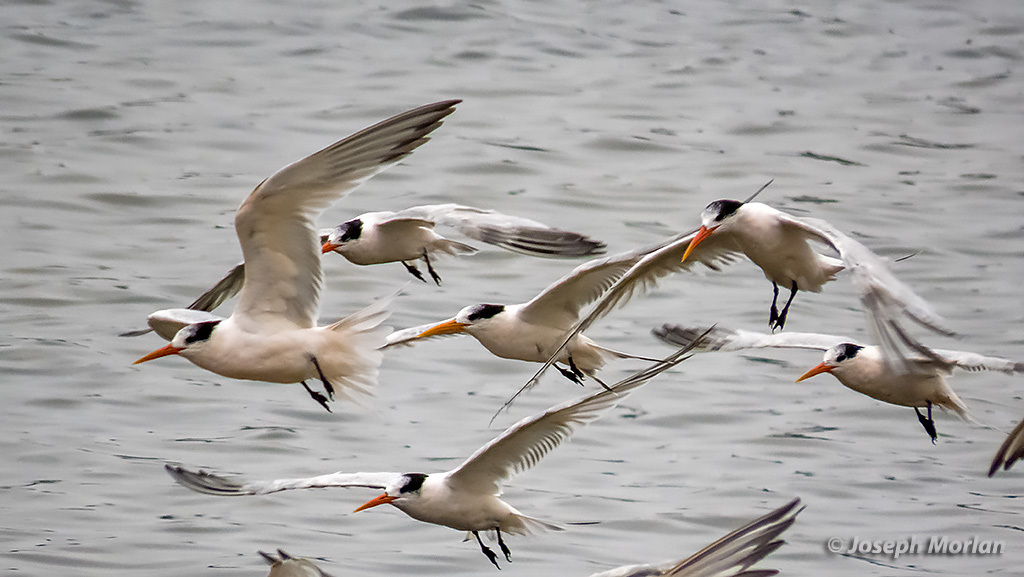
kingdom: Animalia
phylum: Chordata
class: Aves
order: Charadriiformes
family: Laridae
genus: Thalasseus
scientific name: Thalasseus elegans
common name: Elegant tern
